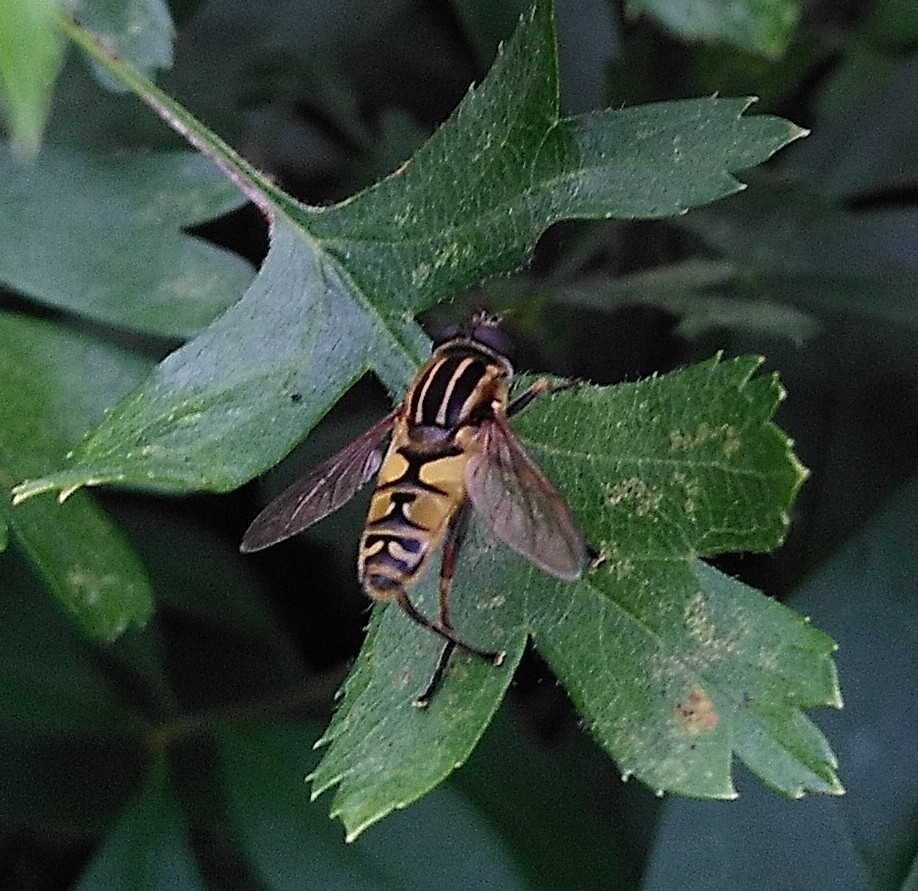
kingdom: Animalia
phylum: Arthropoda
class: Insecta
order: Diptera
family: Syrphidae
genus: Helophilus
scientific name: Helophilus pendulus
